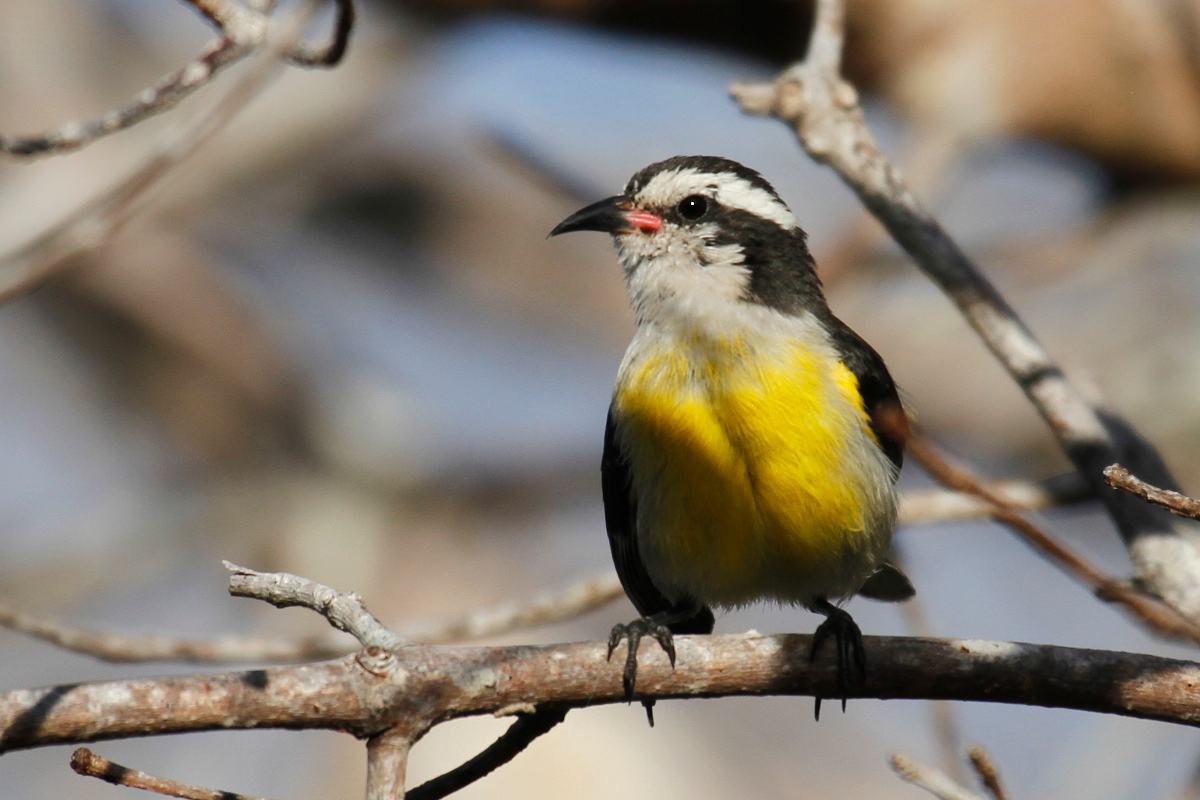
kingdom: Animalia
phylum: Chordata
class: Aves
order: Passeriformes
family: Thraupidae
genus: Coereba
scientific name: Coereba flaveola
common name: Bananaquit
